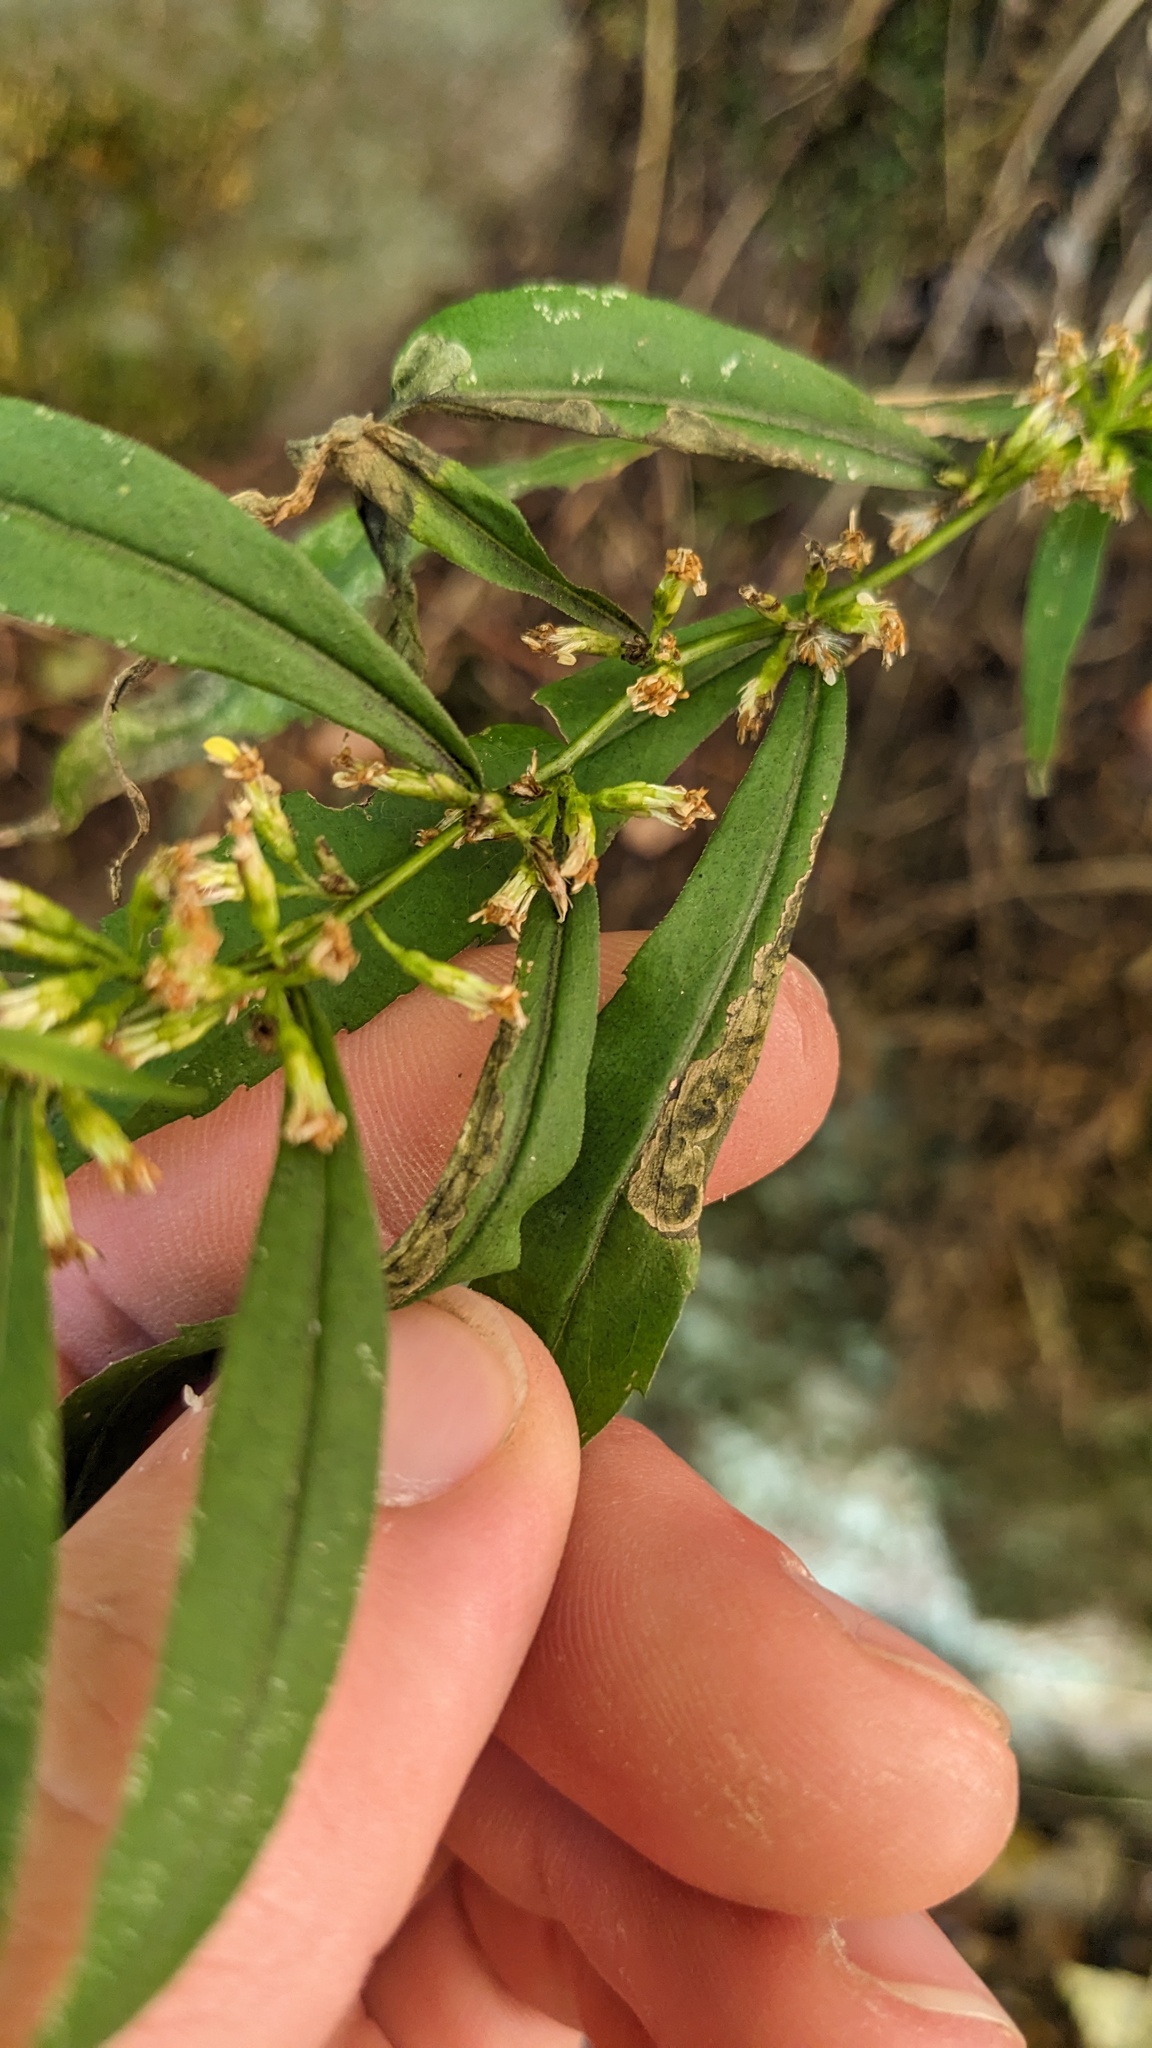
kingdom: Animalia
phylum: Arthropoda
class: Insecta
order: Diptera
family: Agromyzidae
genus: Nemorimyza
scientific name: Nemorimyza posticata
